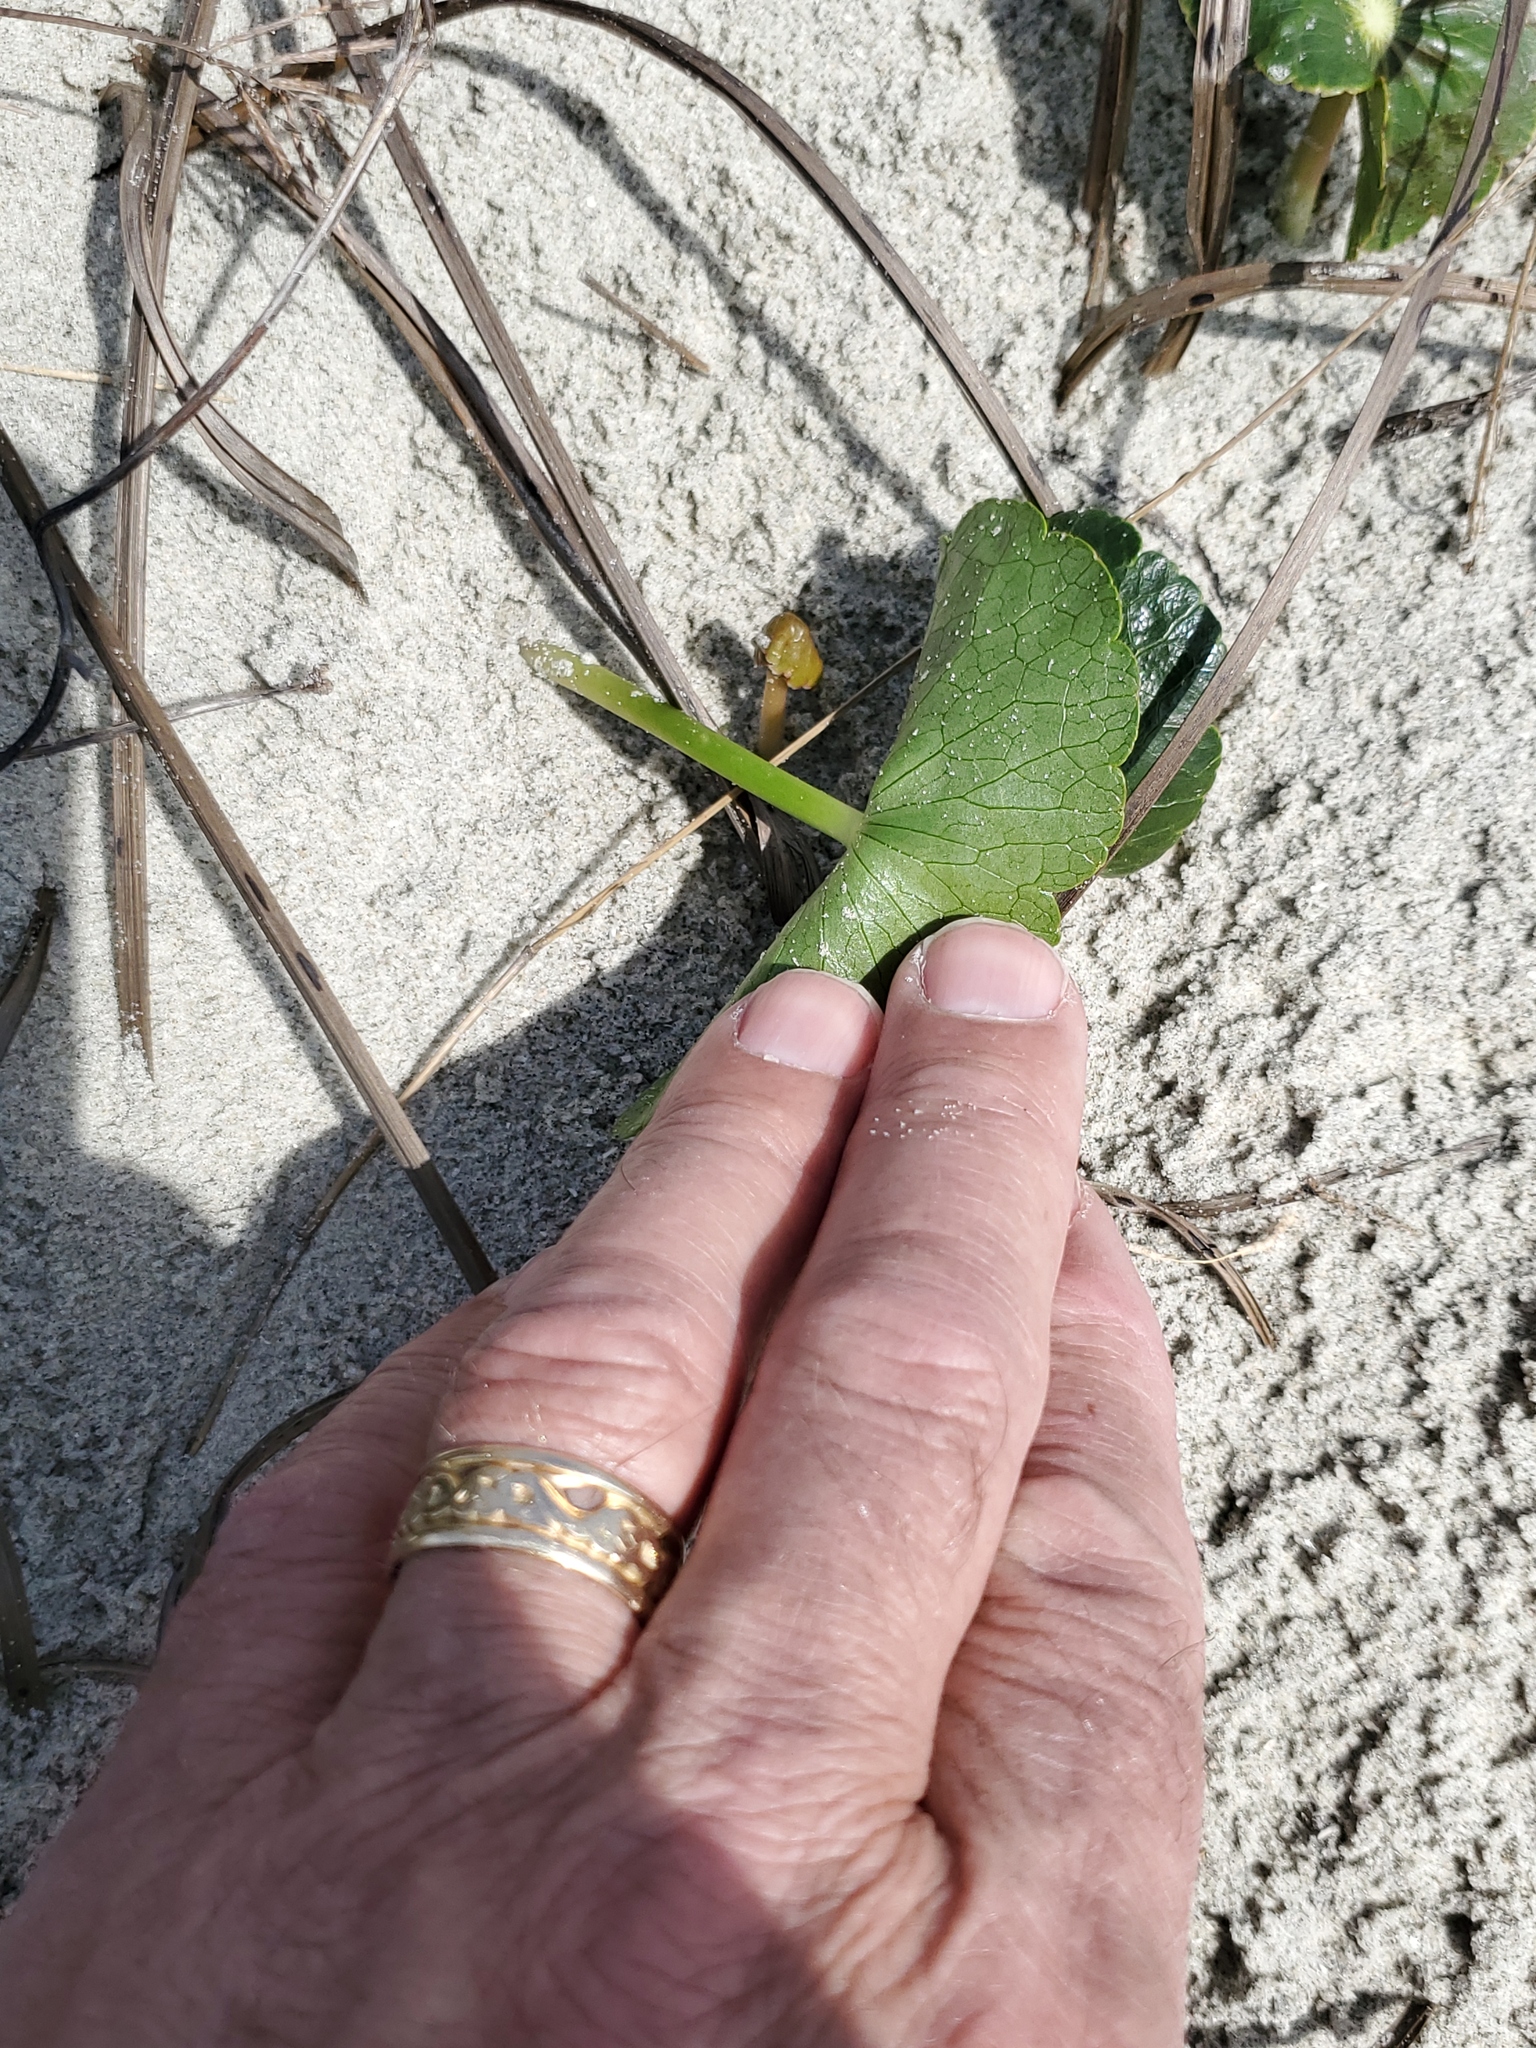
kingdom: Plantae
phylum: Tracheophyta
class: Magnoliopsida
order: Apiales
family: Araliaceae
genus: Hydrocotyle
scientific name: Hydrocotyle bonariensis
